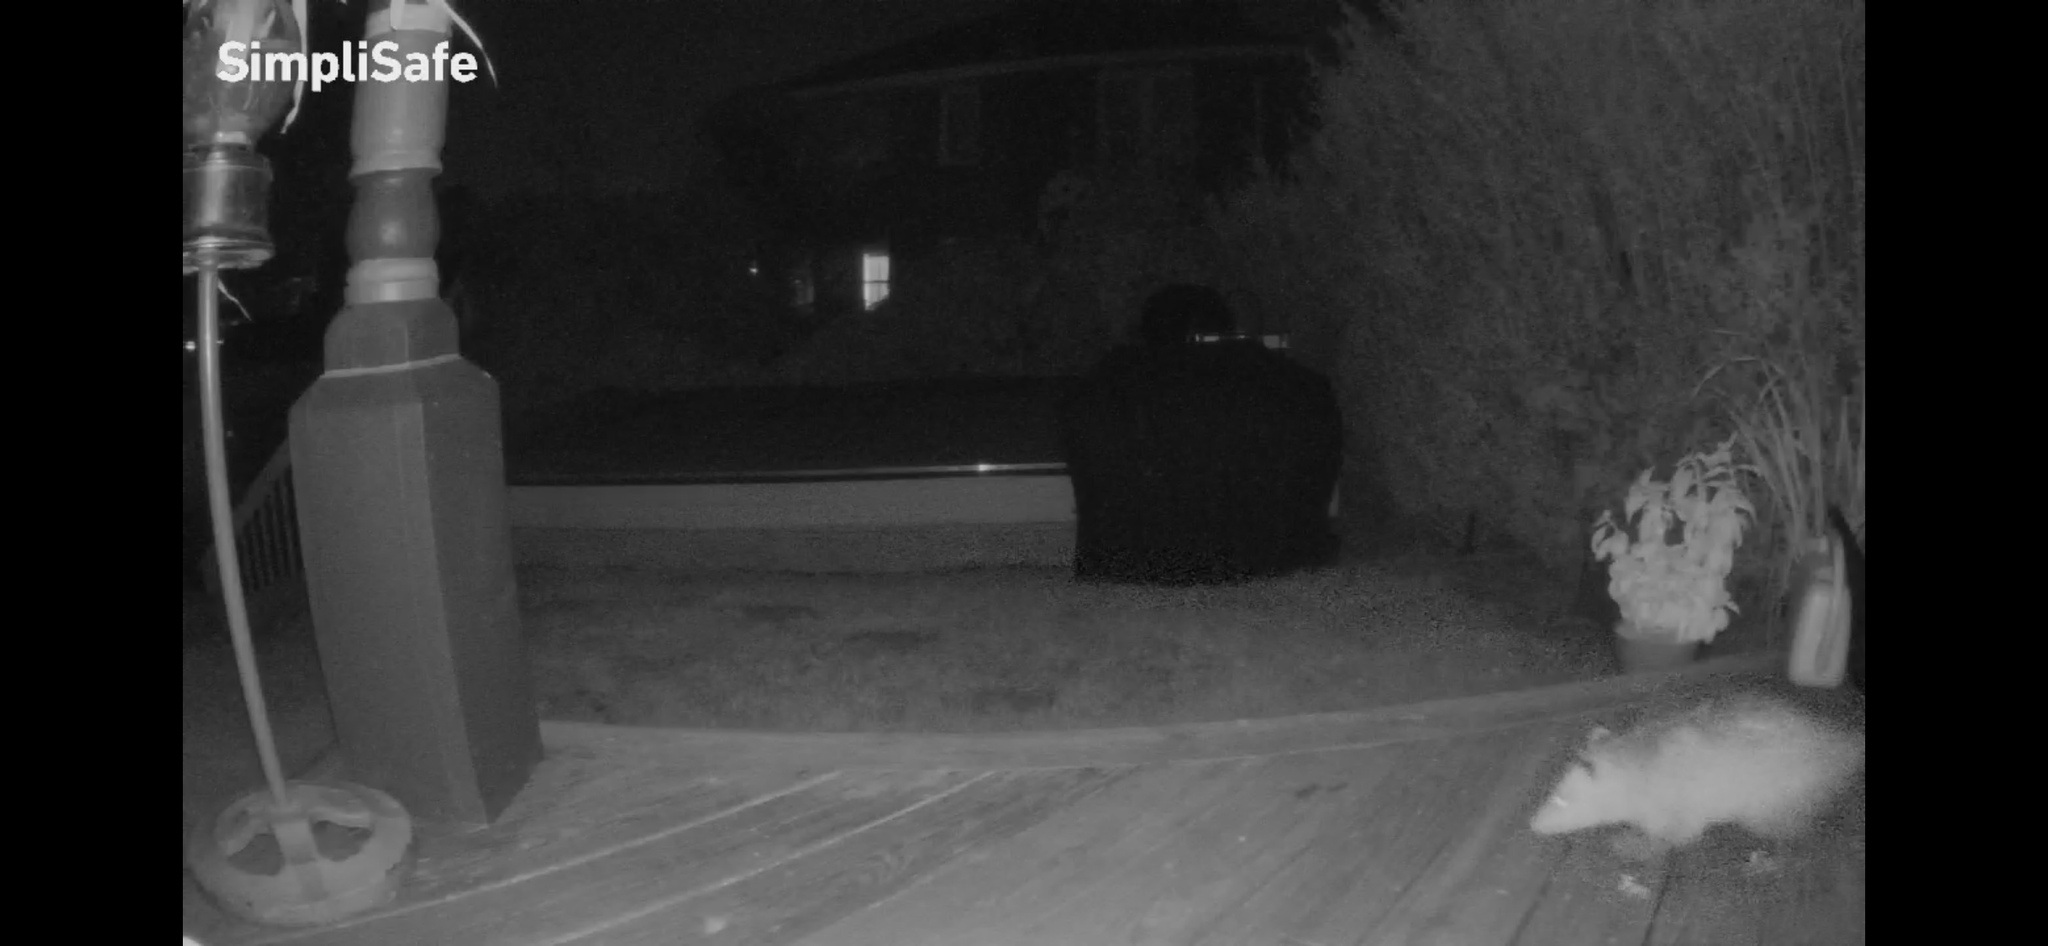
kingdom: Animalia
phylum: Chordata
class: Mammalia
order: Didelphimorphia
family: Didelphidae
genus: Didelphis
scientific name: Didelphis virginiana
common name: Virginia opossum
